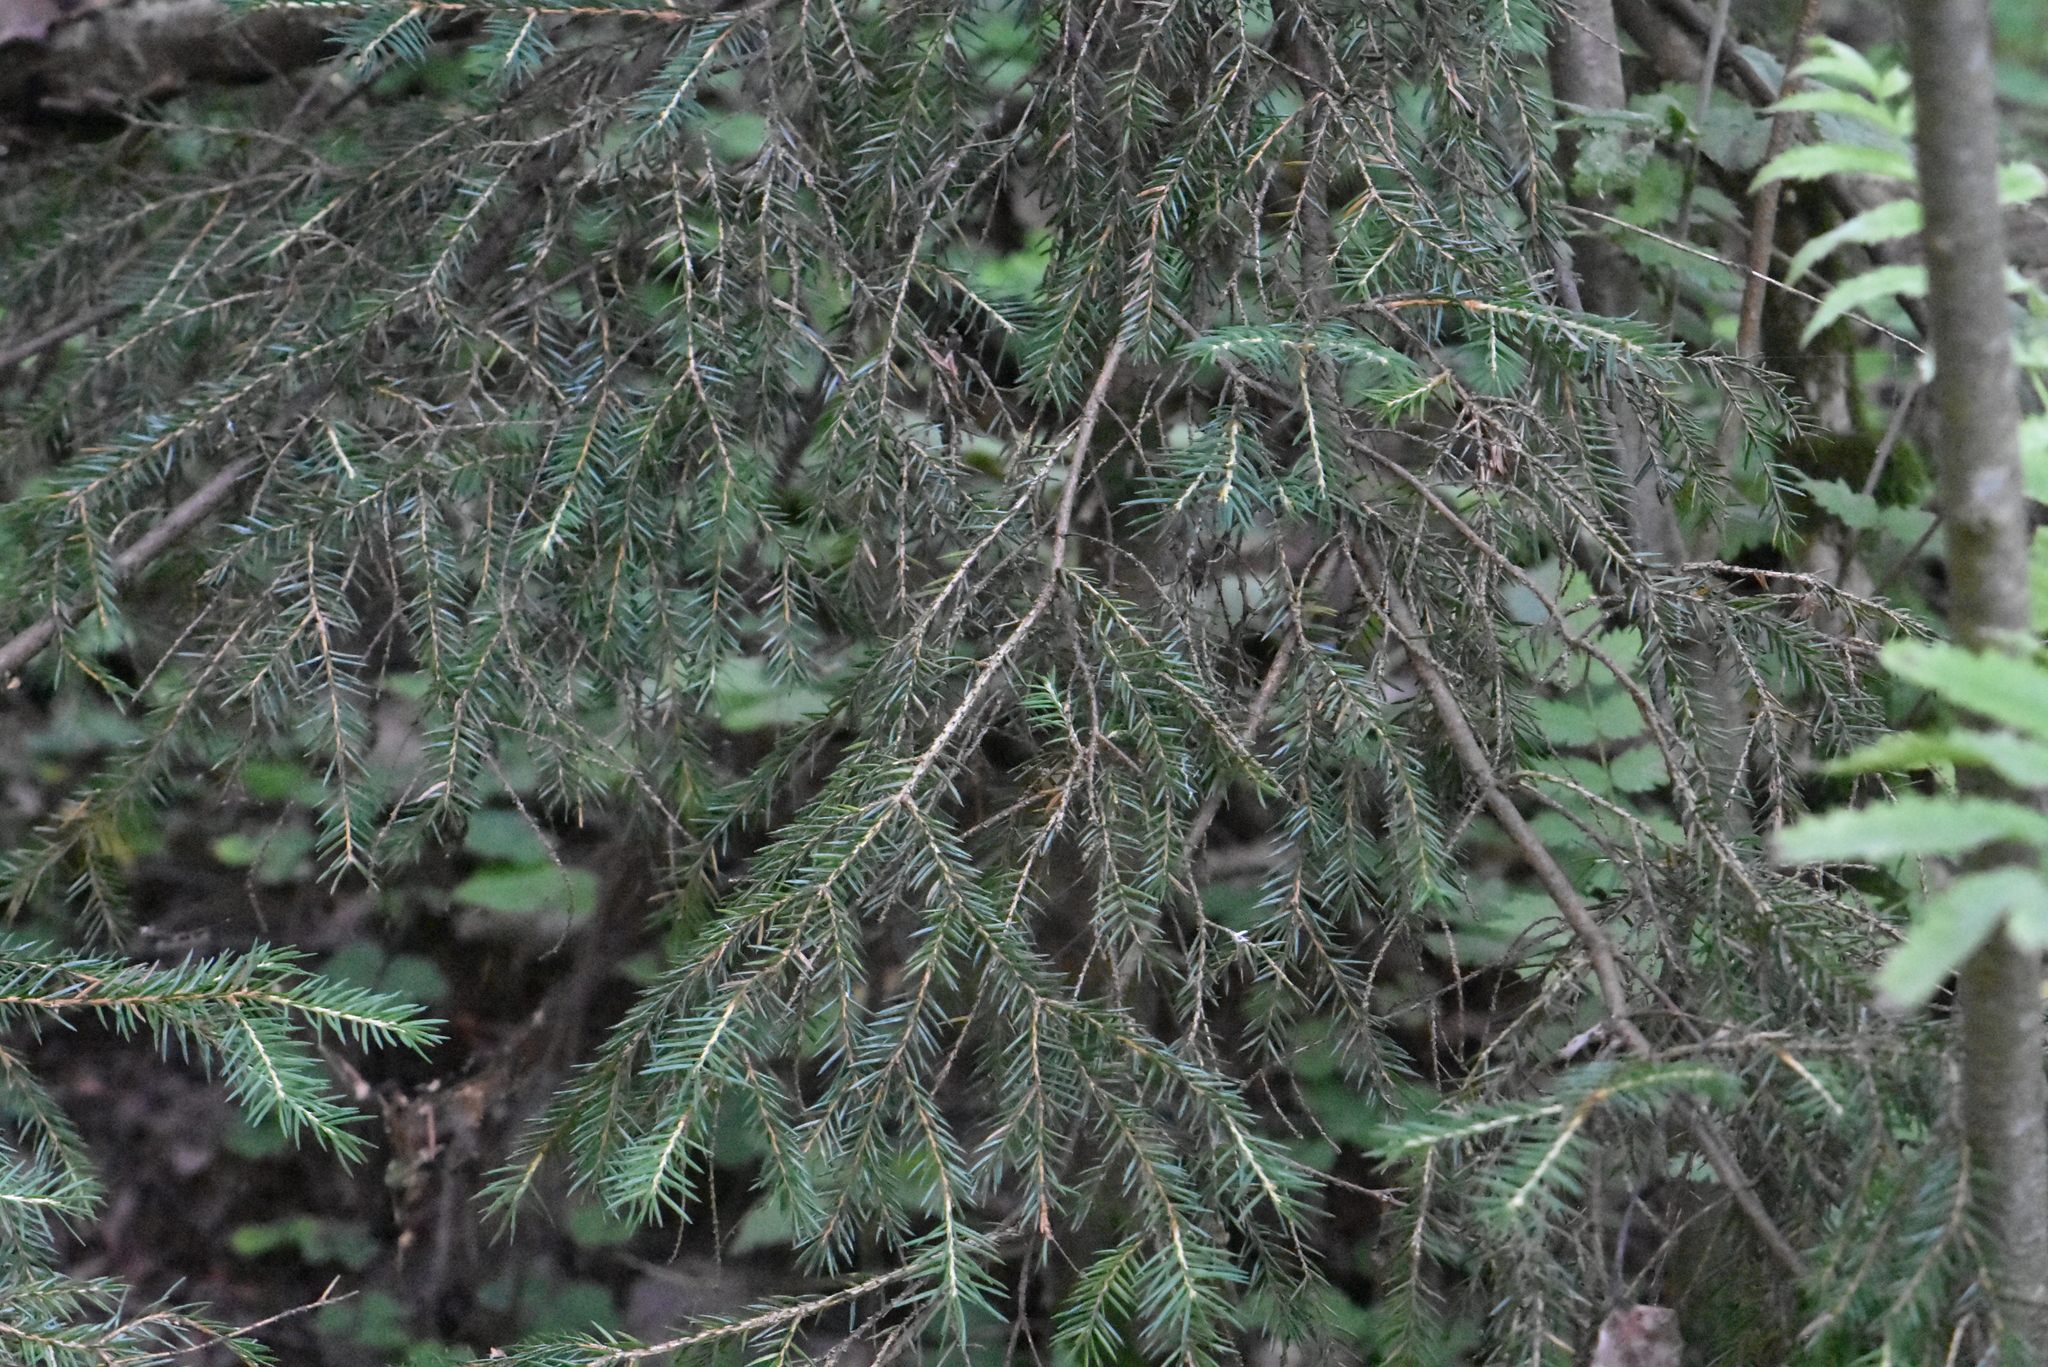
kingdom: Plantae
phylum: Tracheophyta
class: Pinopsida
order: Pinales
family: Pinaceae
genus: Picea
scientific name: Picea abies
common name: Norway spruce
